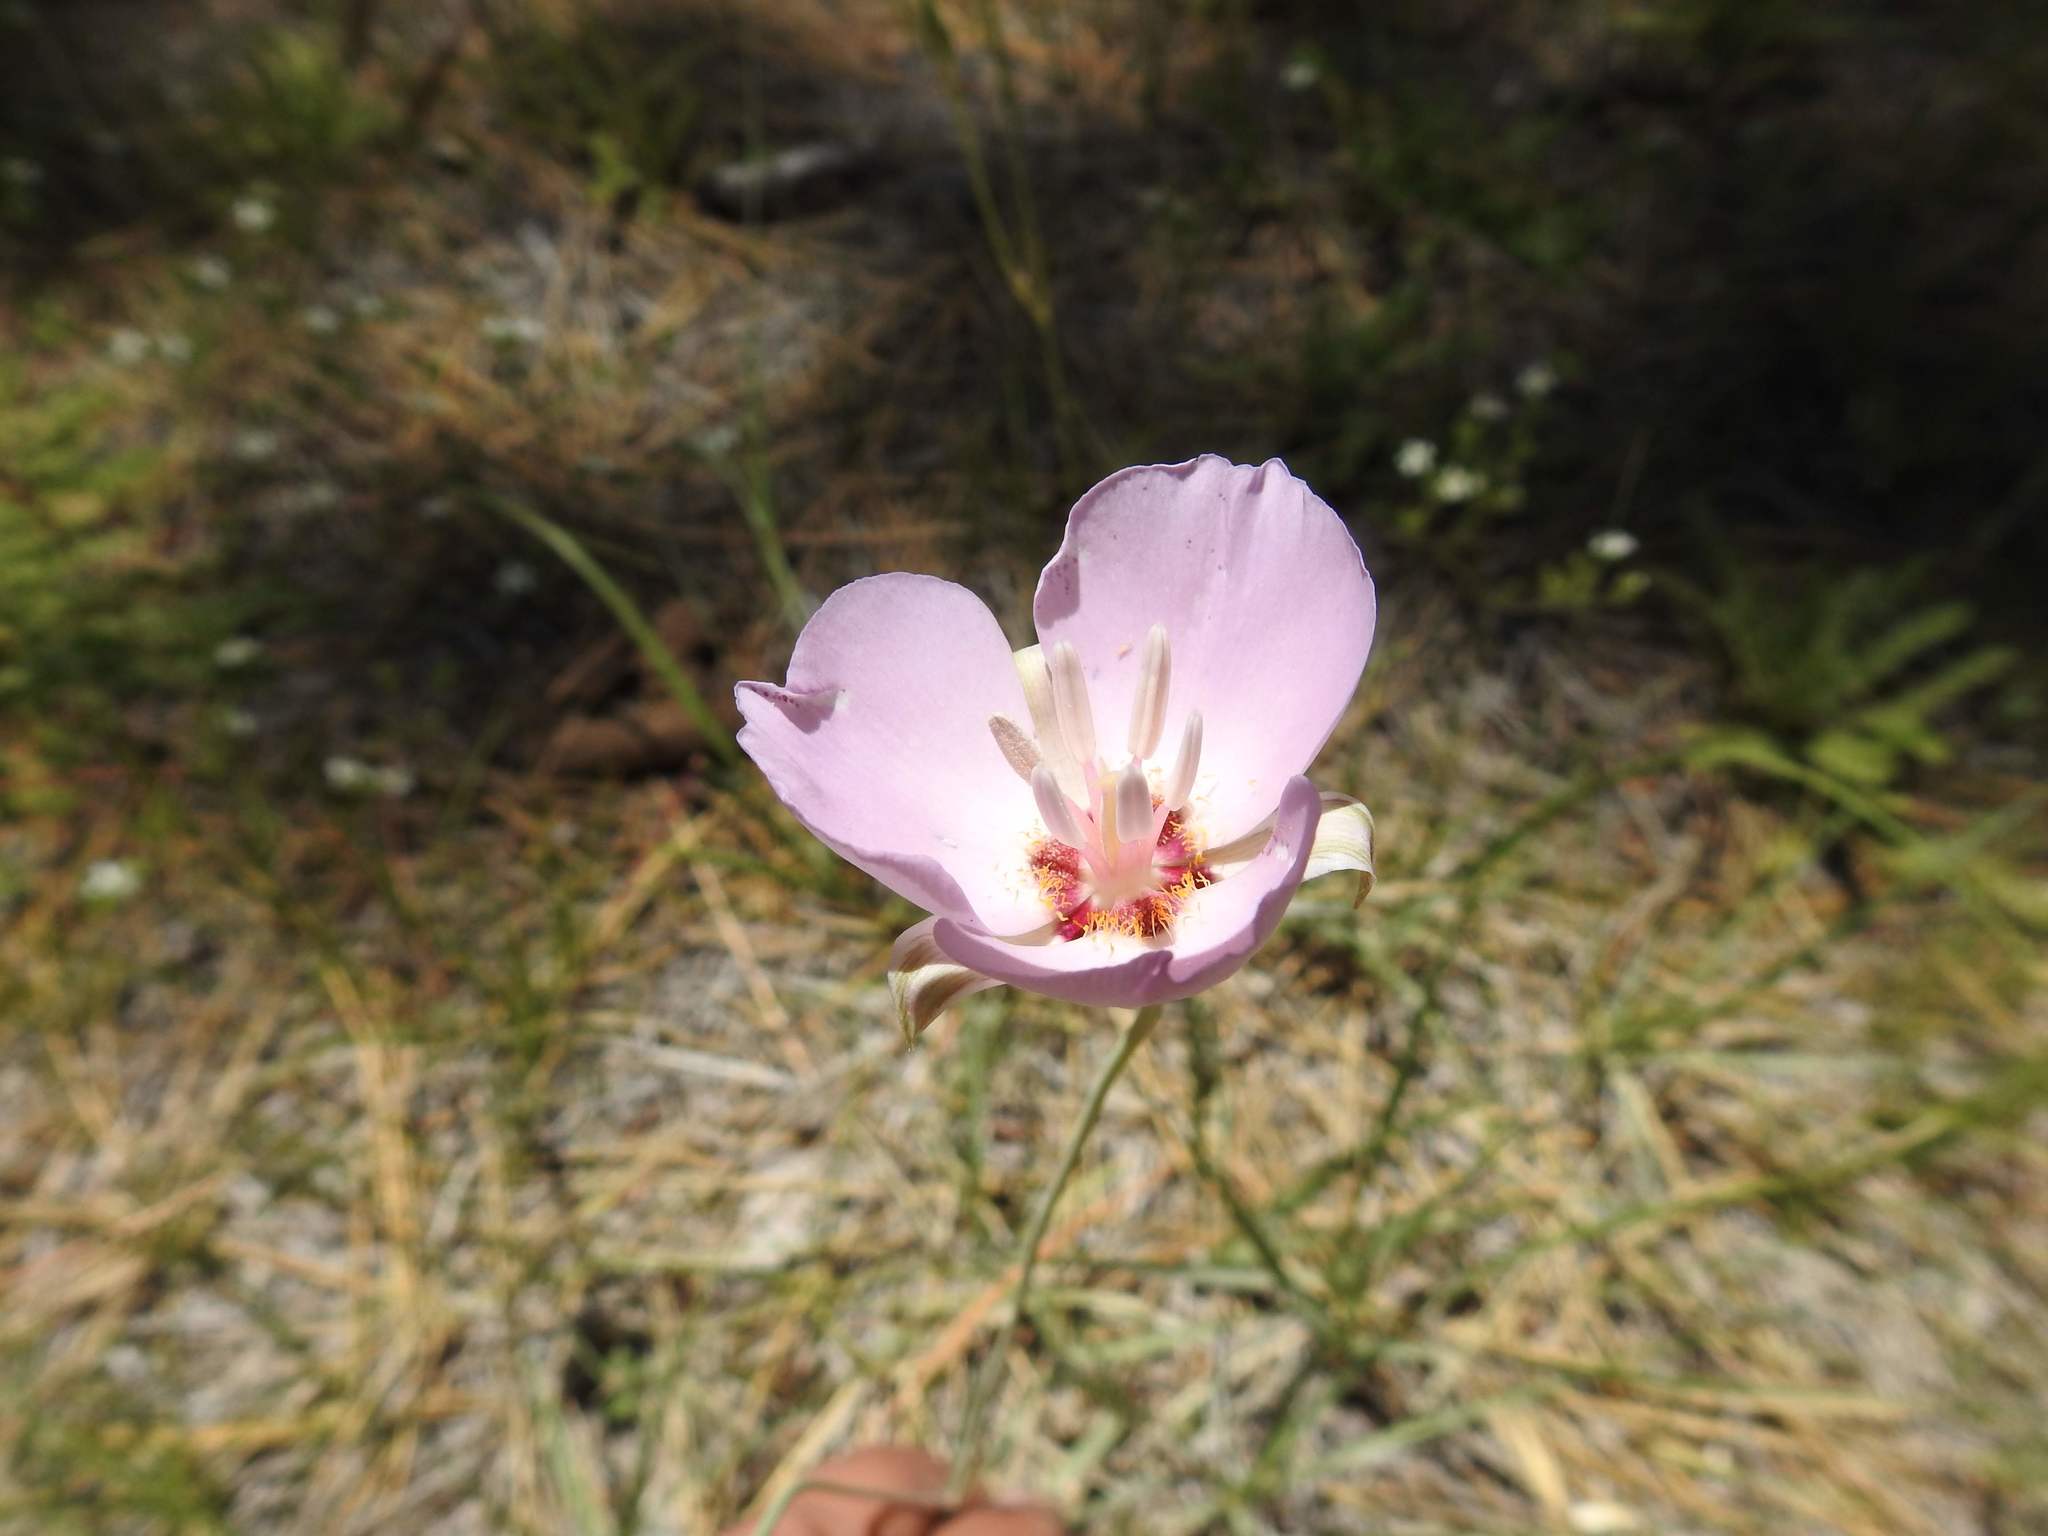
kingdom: Plantae
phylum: Tracheophyta
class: Liliopsida
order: Liliales
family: Liliaceae
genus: Calochortus
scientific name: Calochortus palmeri
